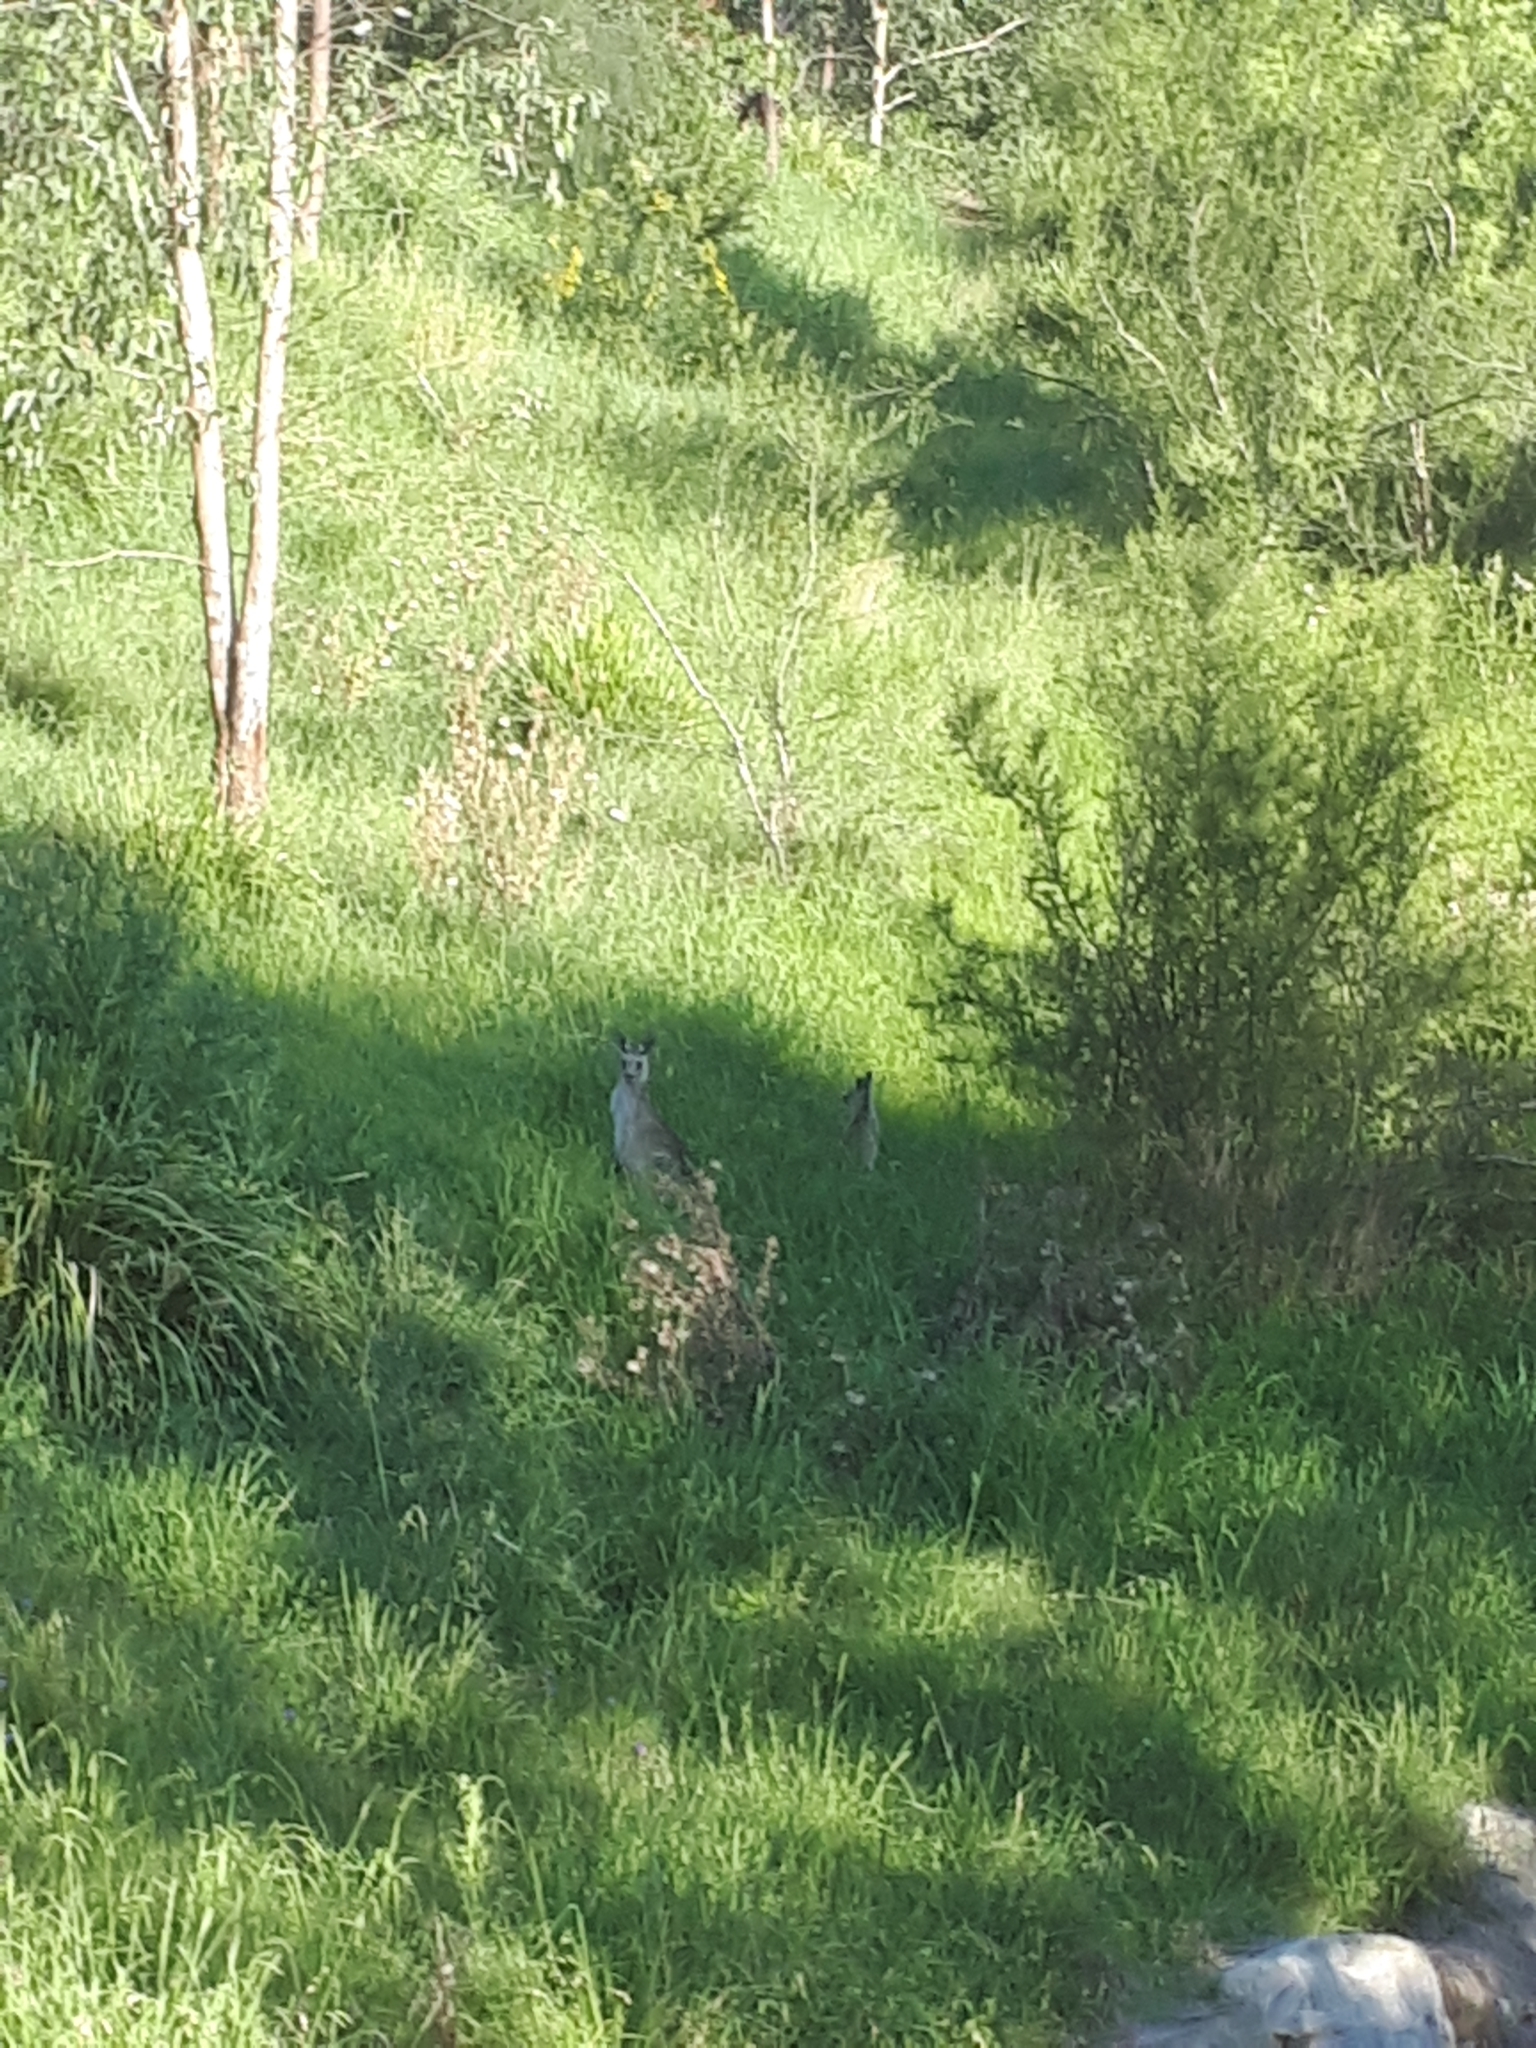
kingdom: Animalia
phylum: Chordata
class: Mammalia
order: Diprotodontia
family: Macropodidae
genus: Macropus
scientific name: Macropus giganteus
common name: Eastern grey kangaroo
